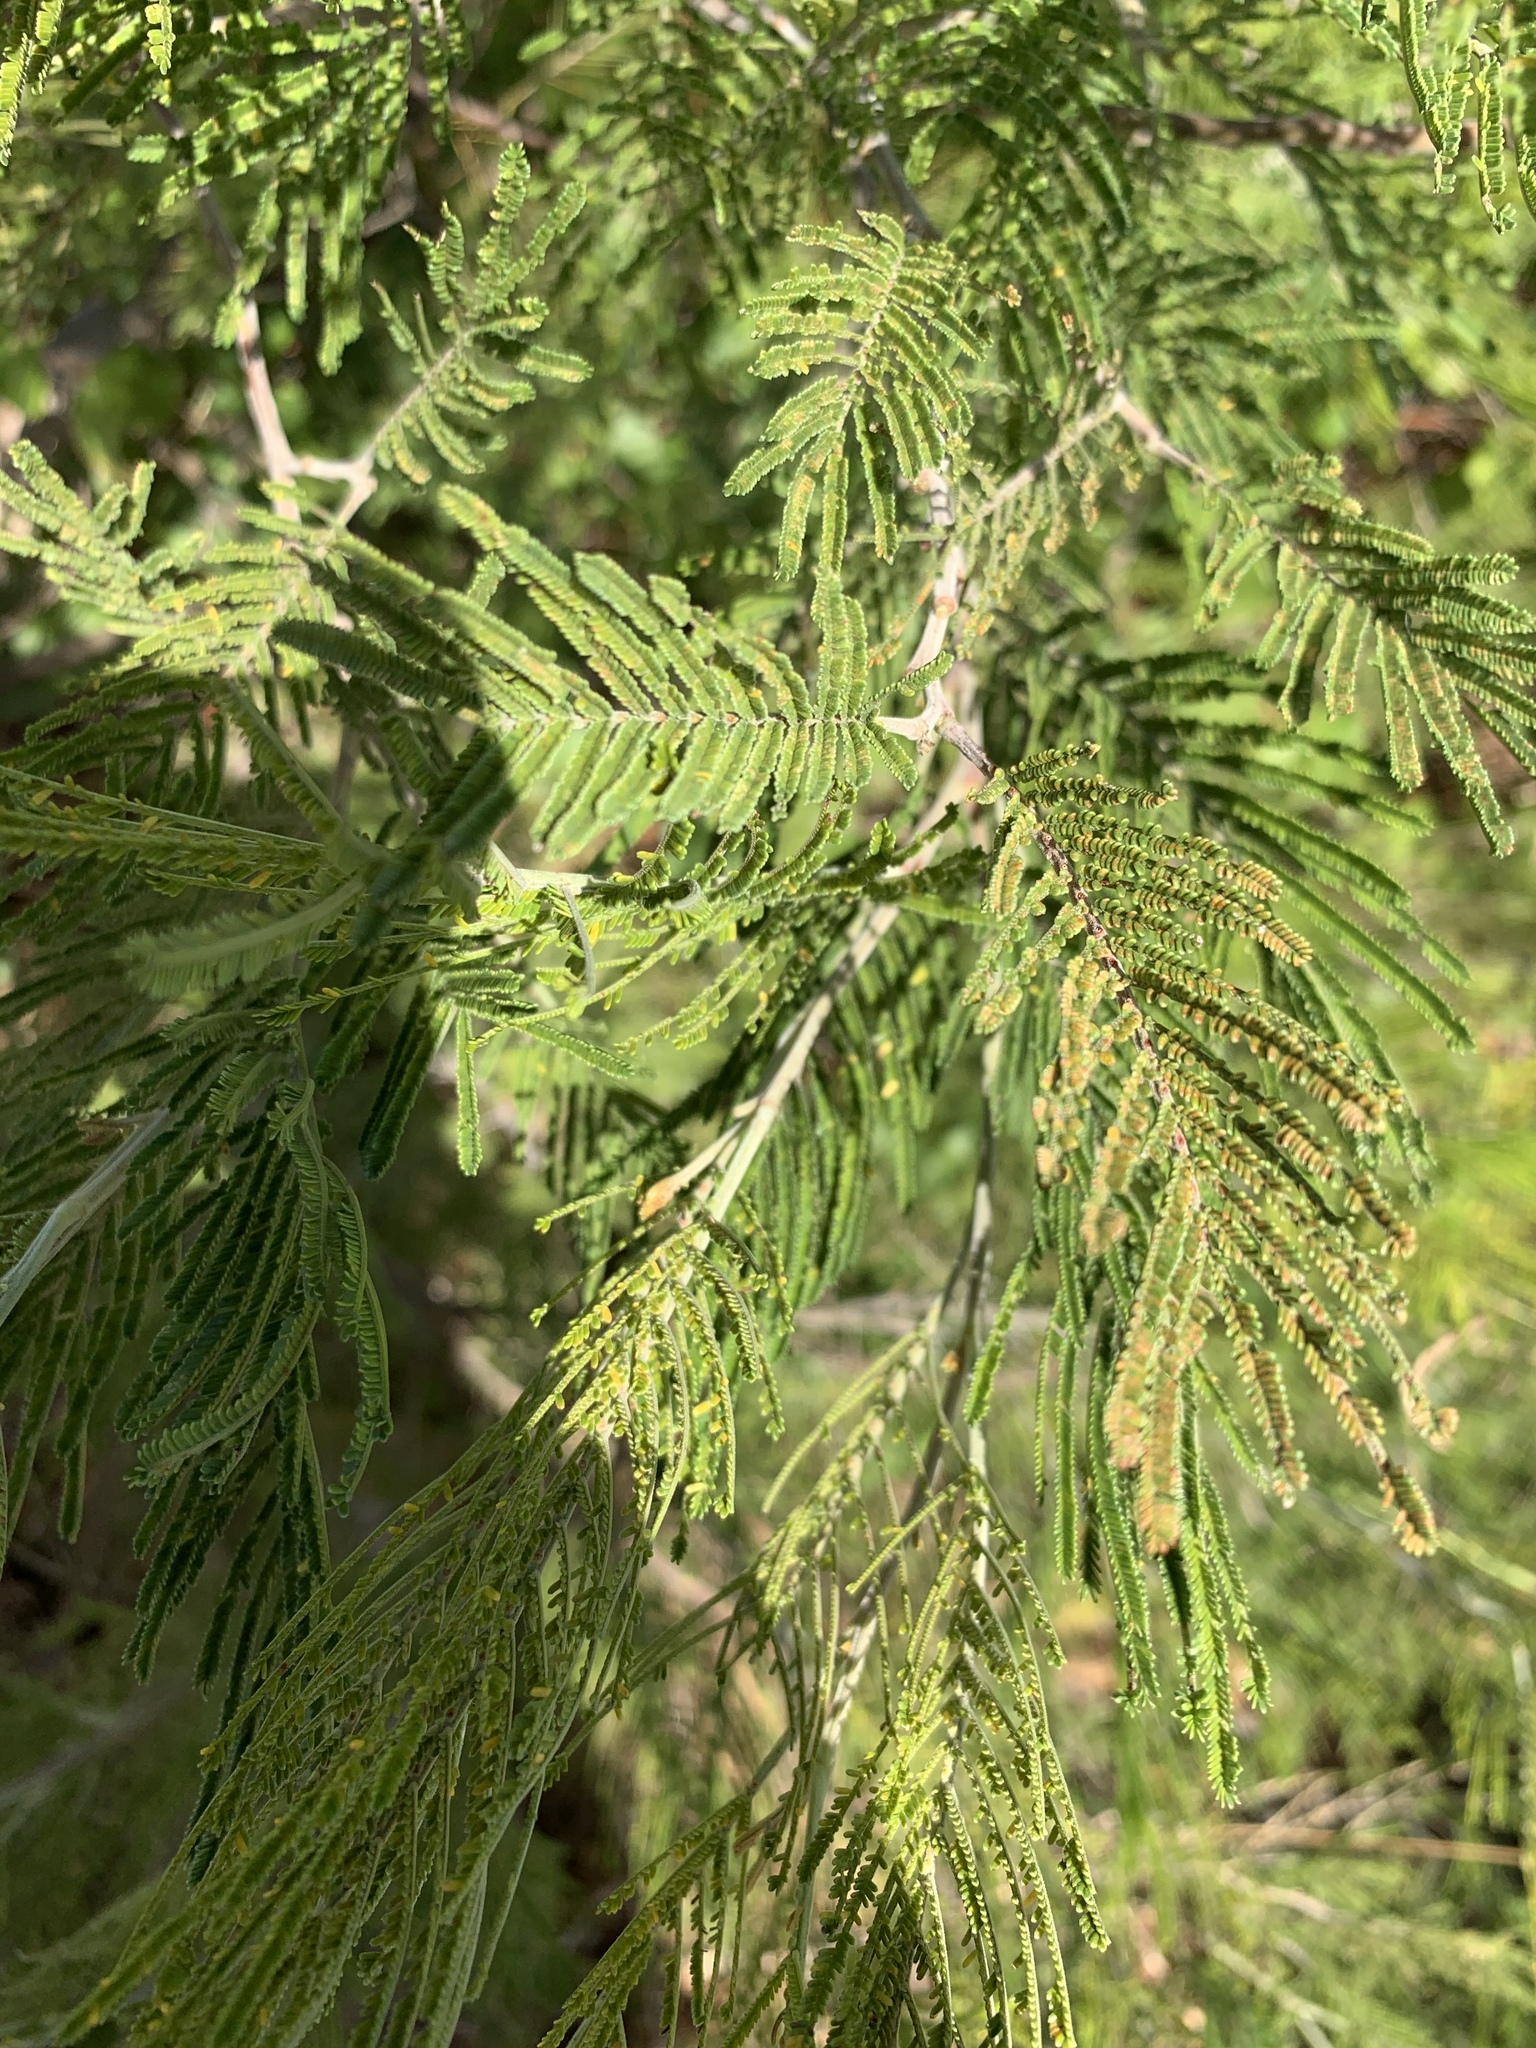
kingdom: Plantae
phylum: Tracheophyta
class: Magnoliopsida
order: Fabales
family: Fabaceae
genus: Acacia
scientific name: Acacia mearnsii
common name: Black wattle
